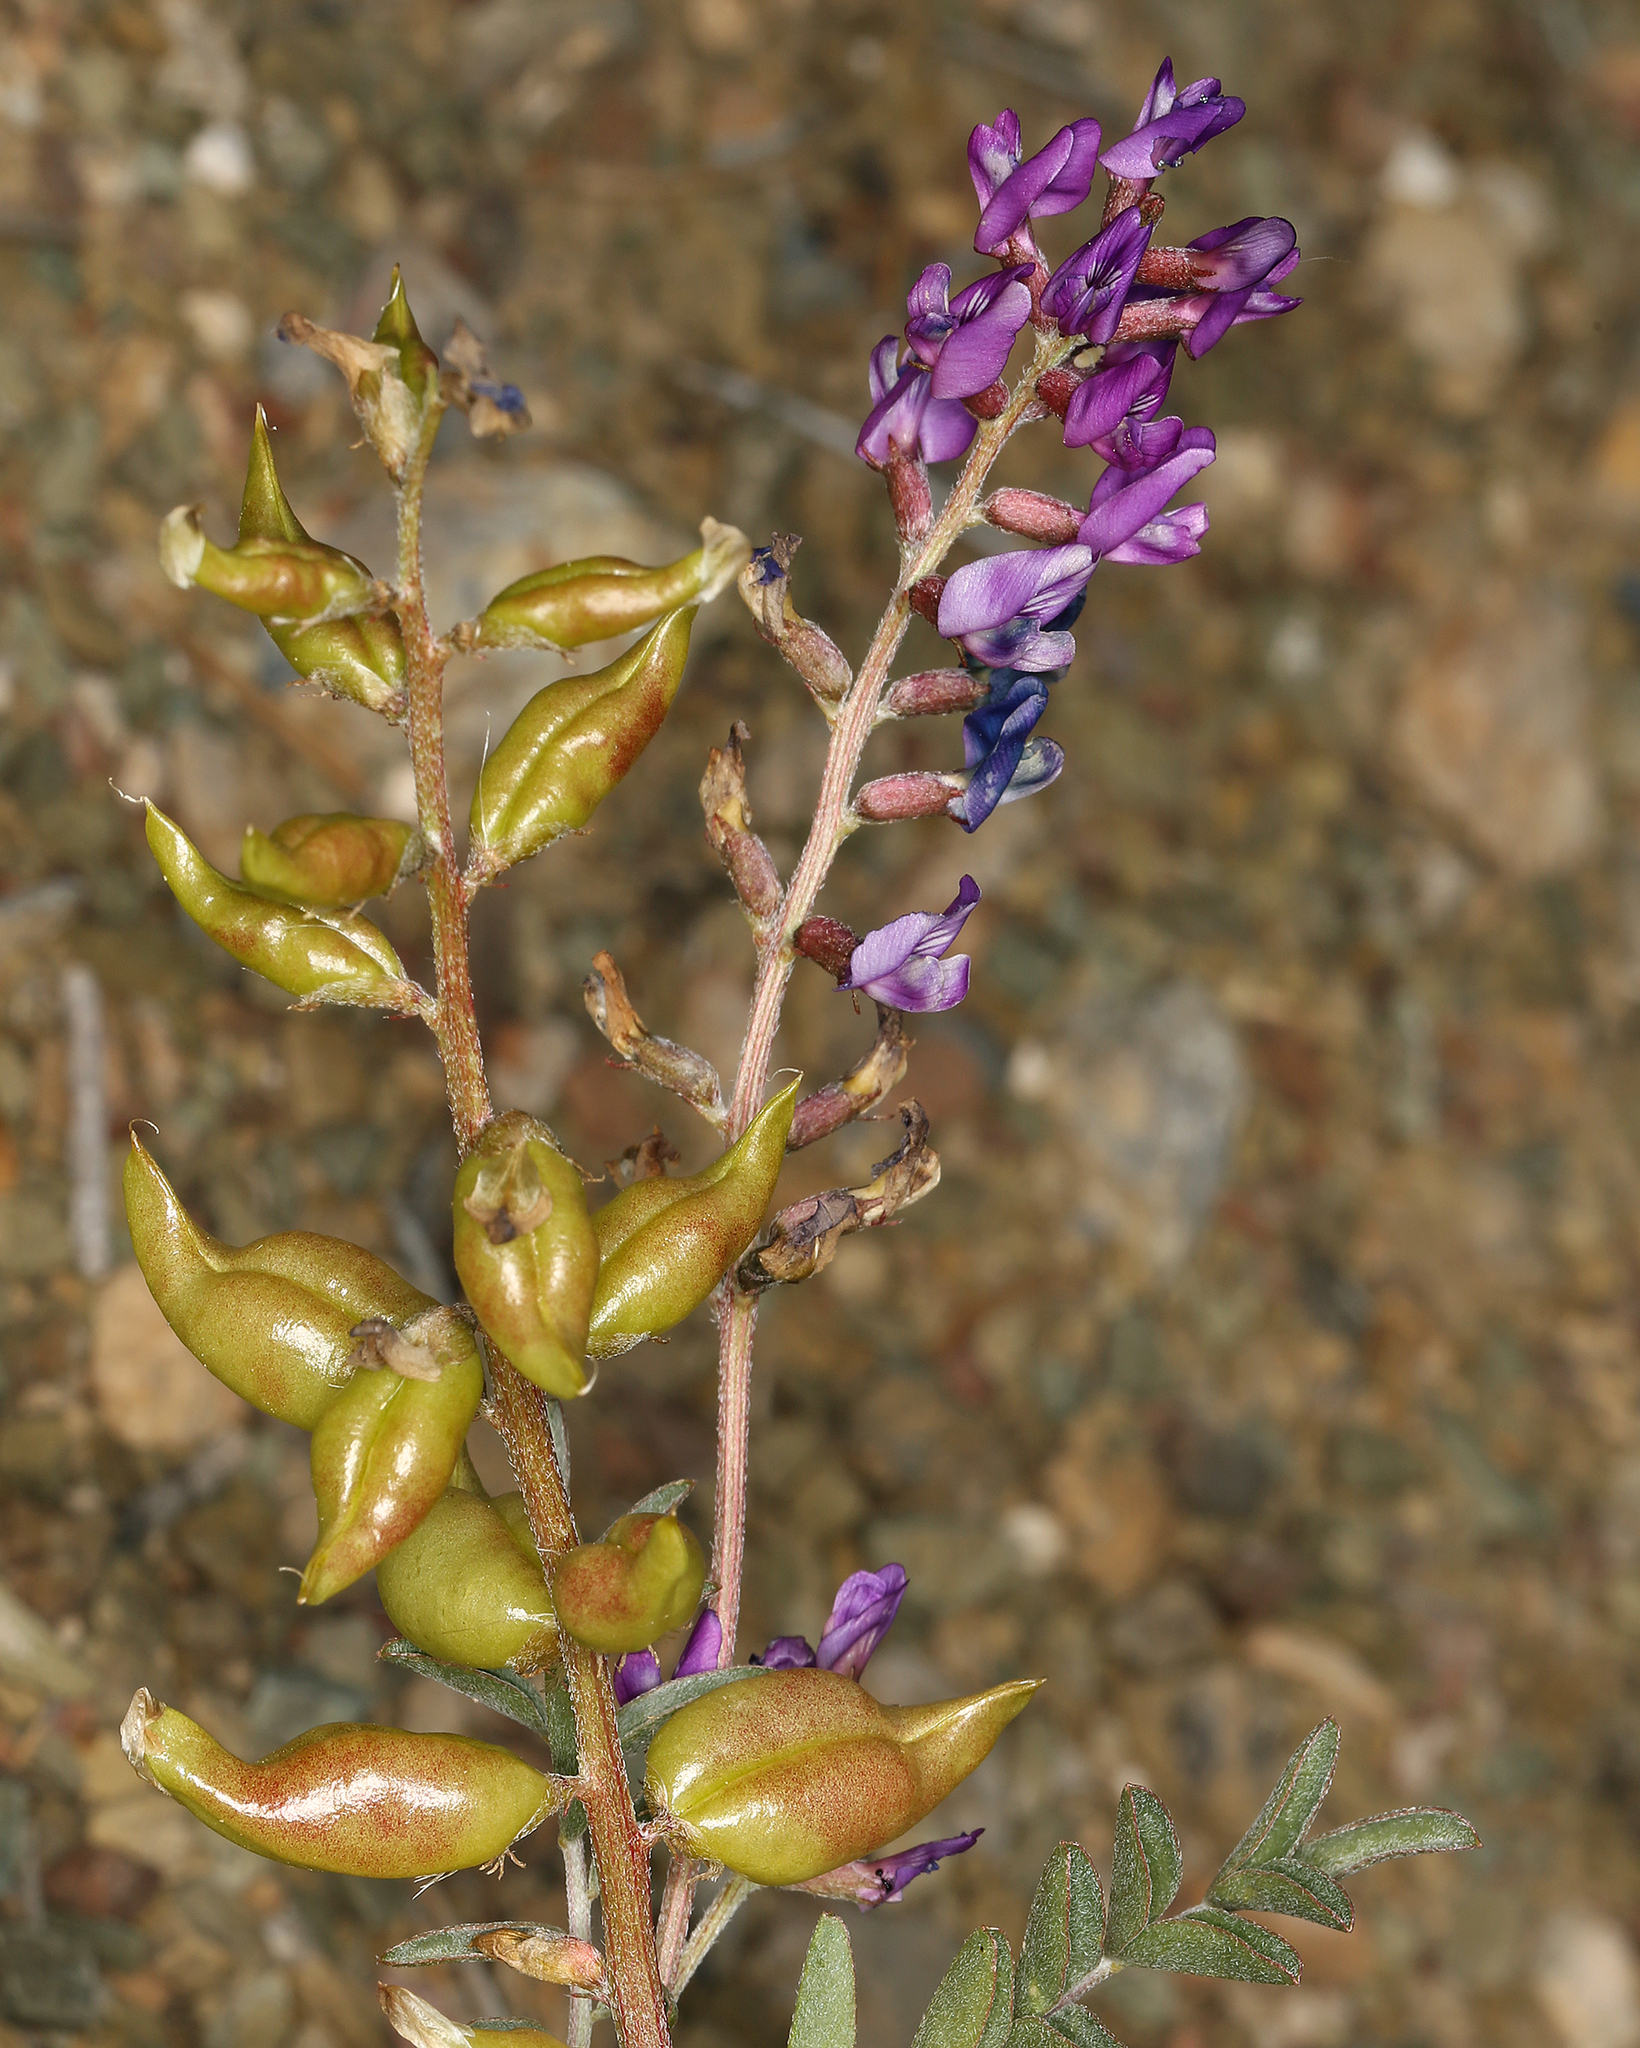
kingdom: Plantae
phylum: Tracheophyta
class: Magnoliopsida
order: Fabales
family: Fabaceae
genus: Astragalus
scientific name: Astragalus lentiginosus
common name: Freckled milkvetch
